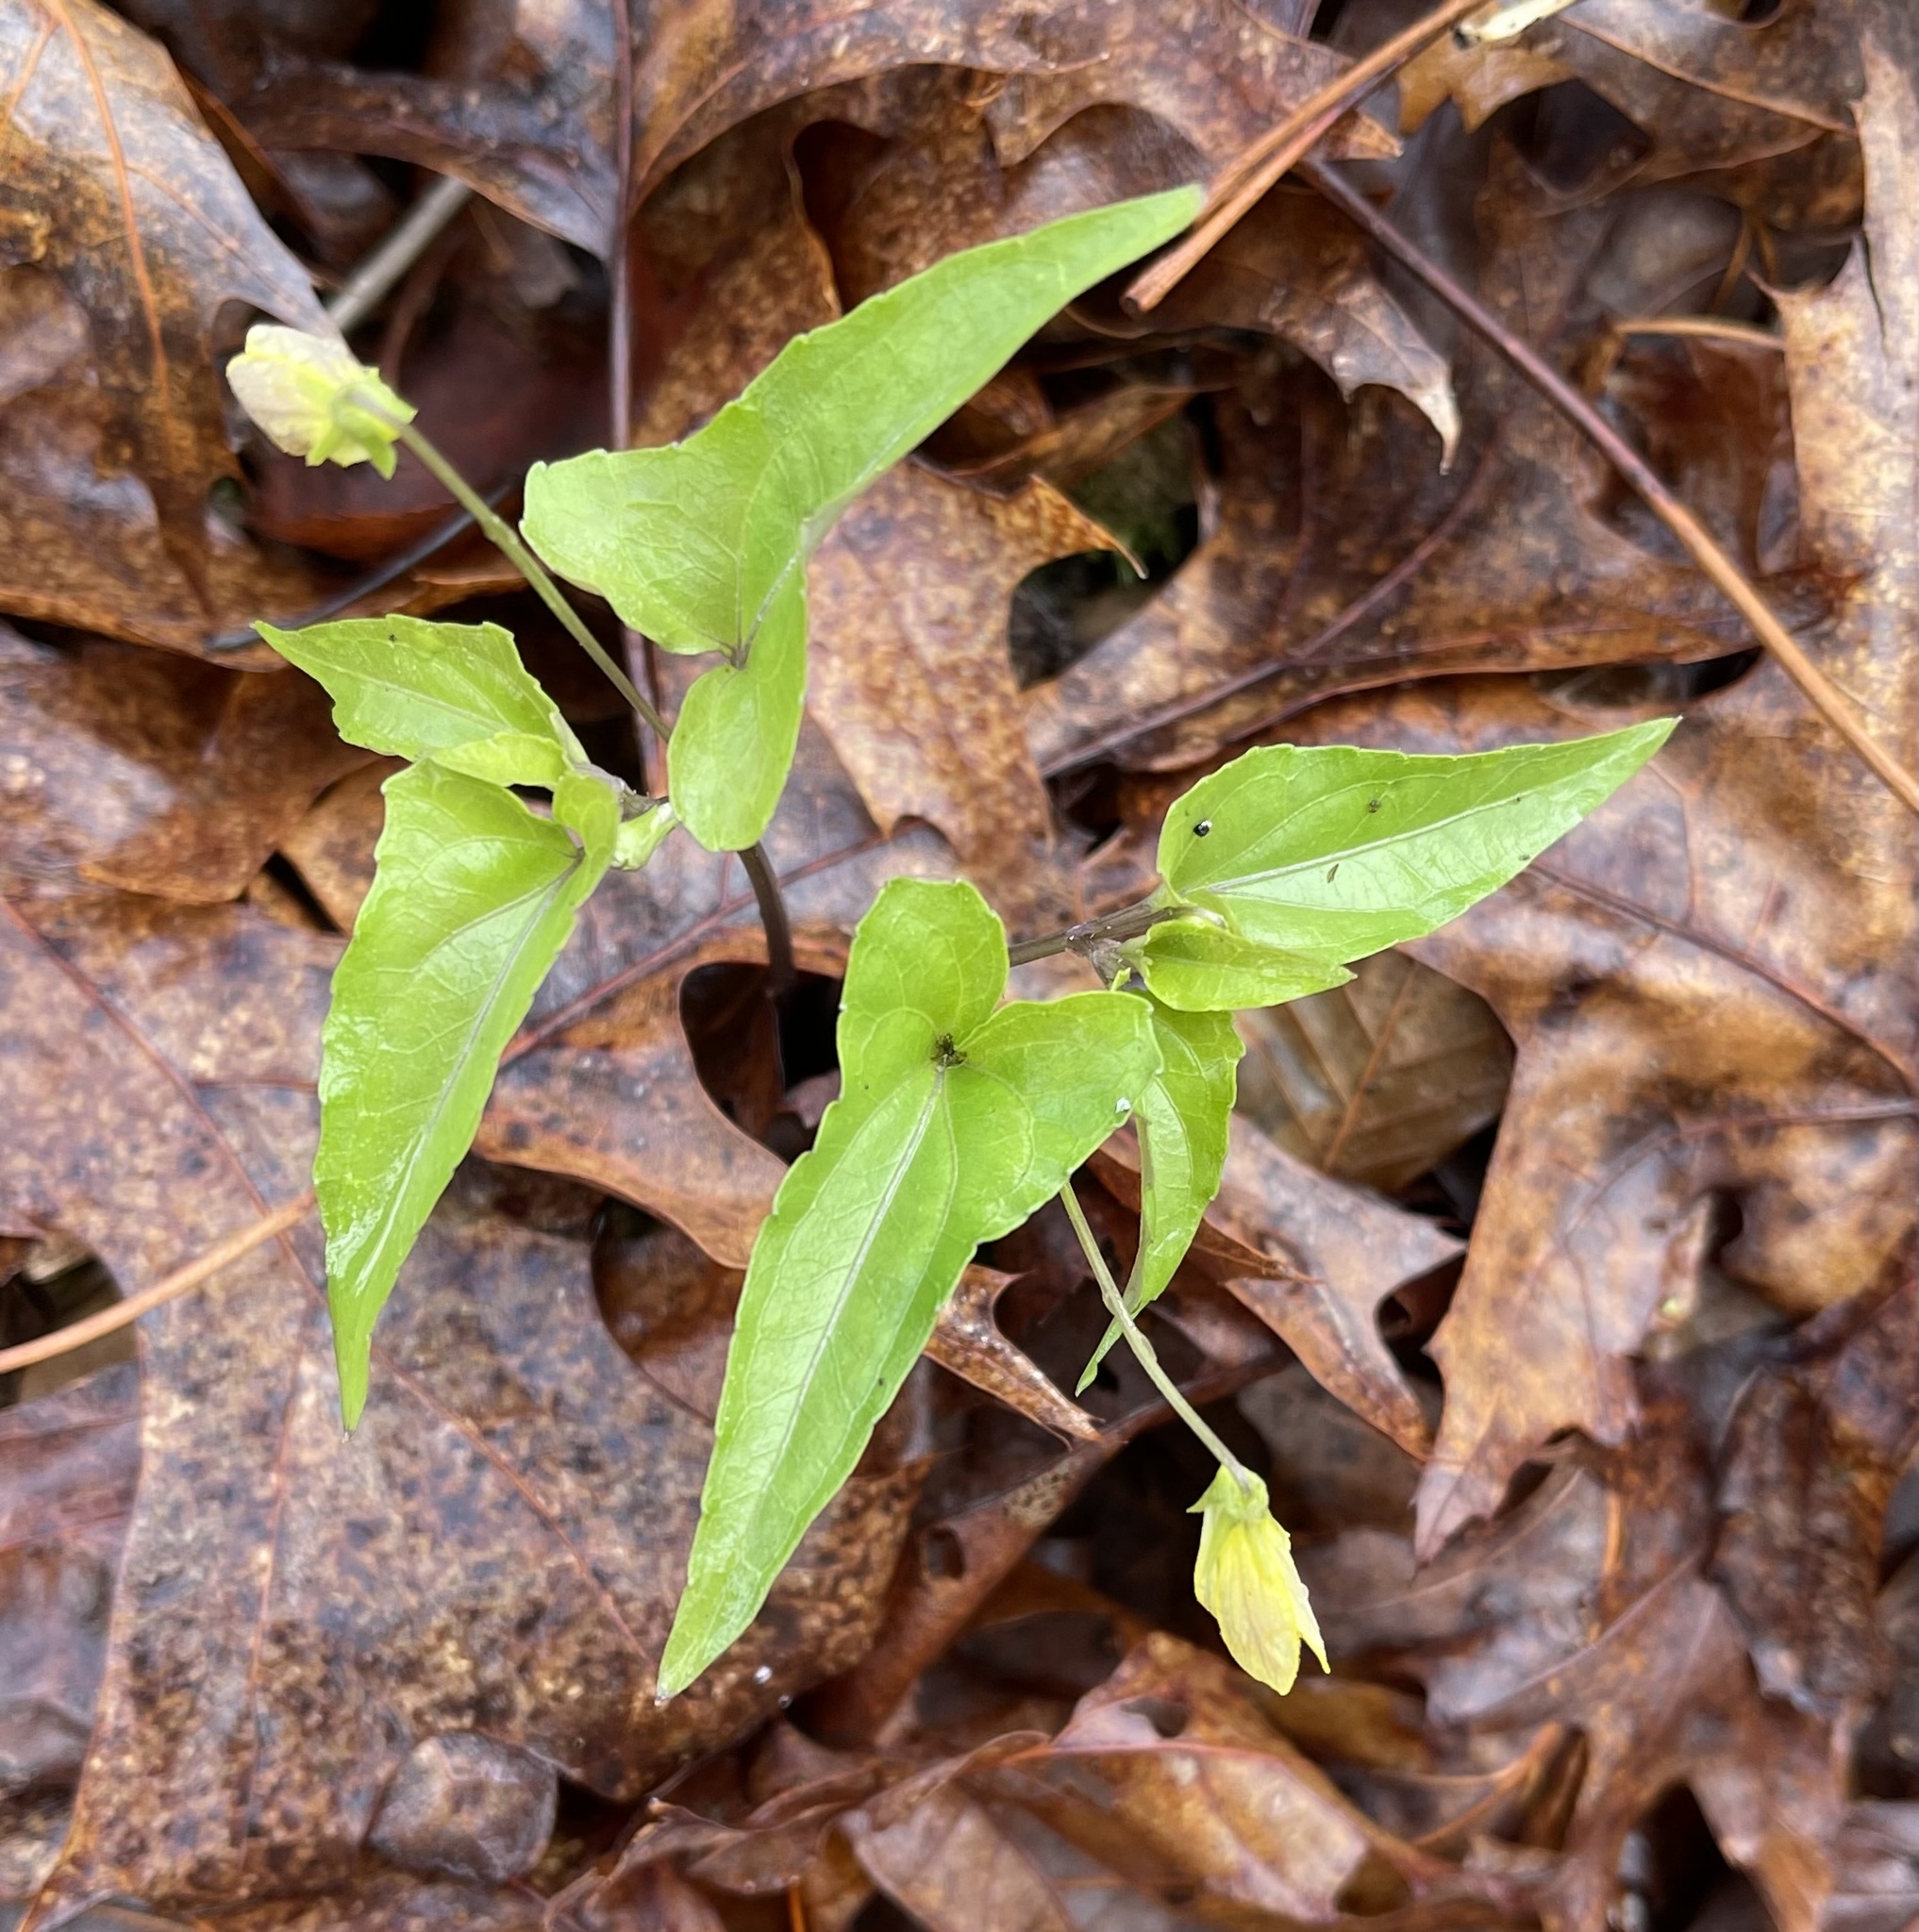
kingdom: Plantae
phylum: Tracheophyta
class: Magnoliopsida
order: Malpighiales
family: Violaceae
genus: Viola
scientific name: Viola hastata
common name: Spear-leaf violet
